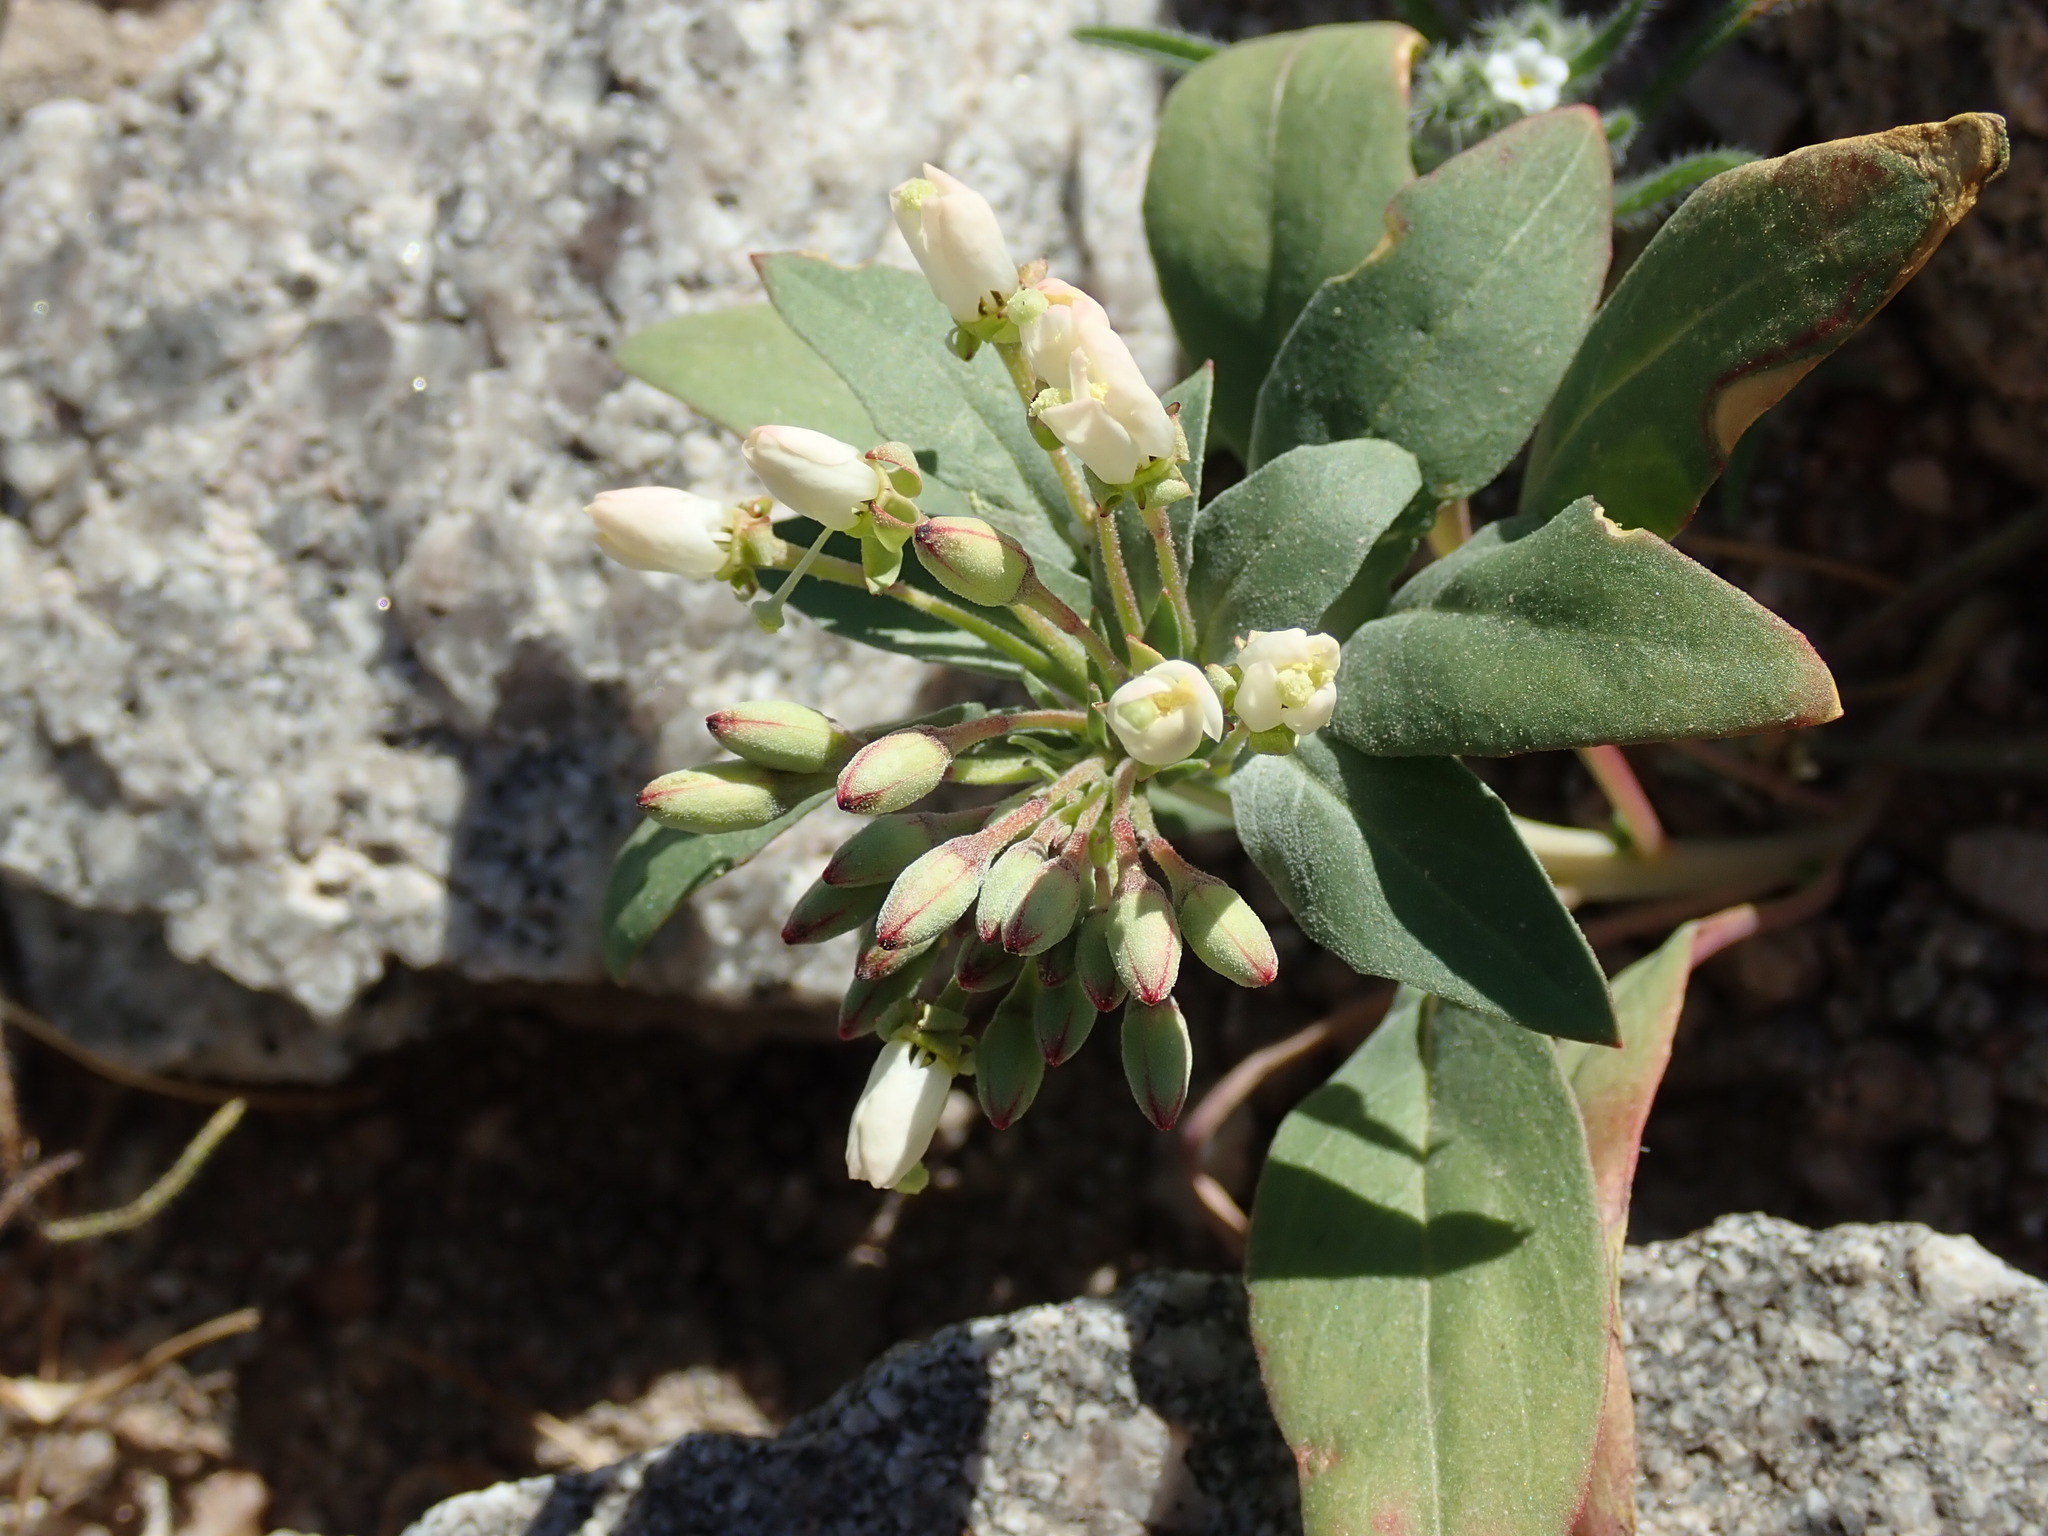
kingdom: Plantae
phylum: Tracheophyta
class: Magnoliopsida
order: Myrtales
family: Onagraceae
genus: Eremothera
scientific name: Eremothera boothii
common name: Booth's evening primrose
